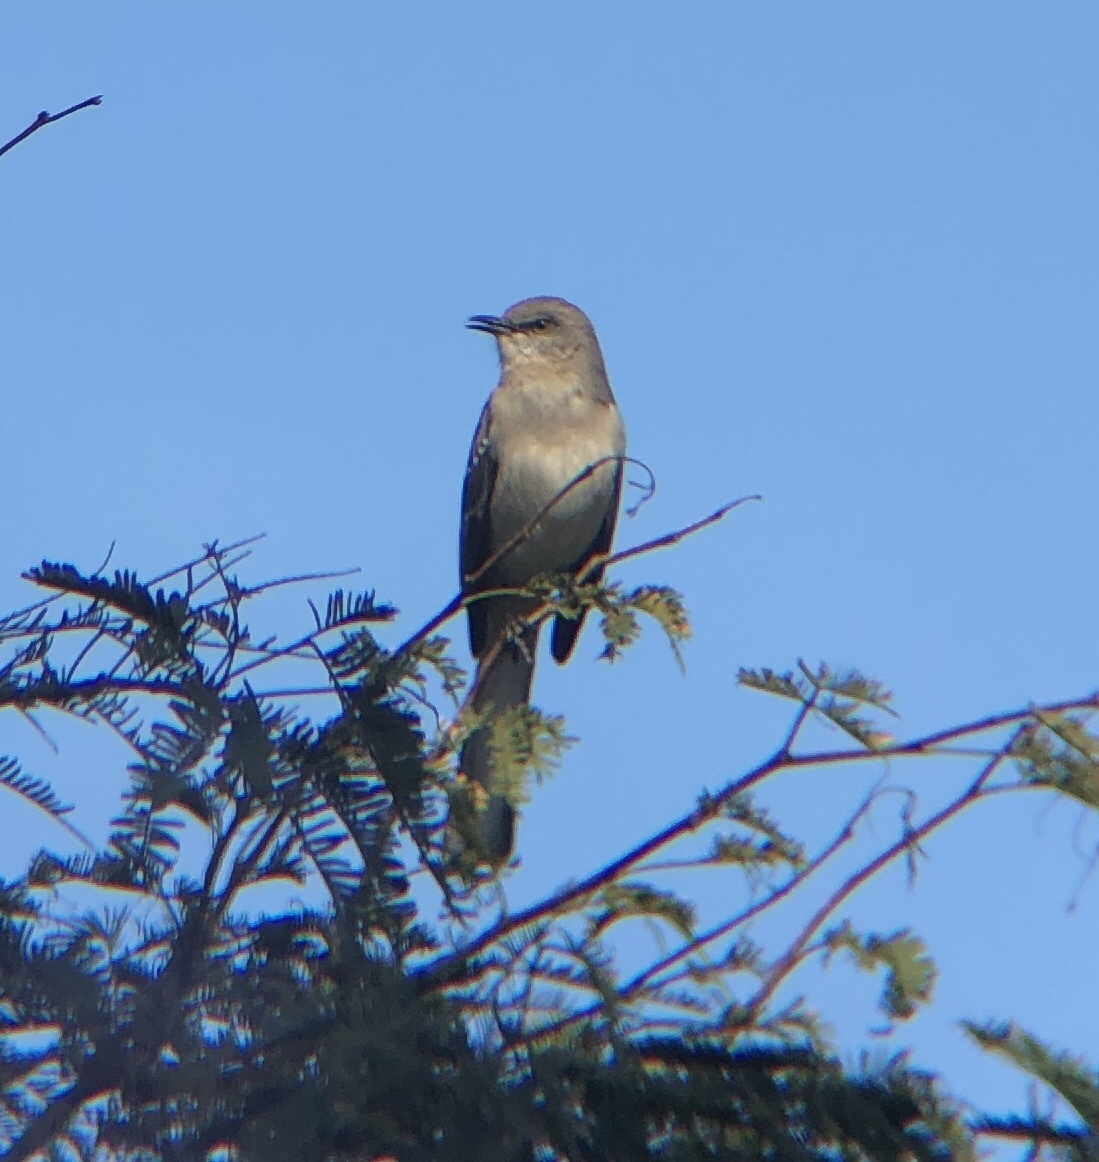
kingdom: Animalia
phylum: Chordata
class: Aves
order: Passeriformes
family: Mimidae
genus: Mimus
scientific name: Mimus polyglottos
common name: Northern mockingbird
